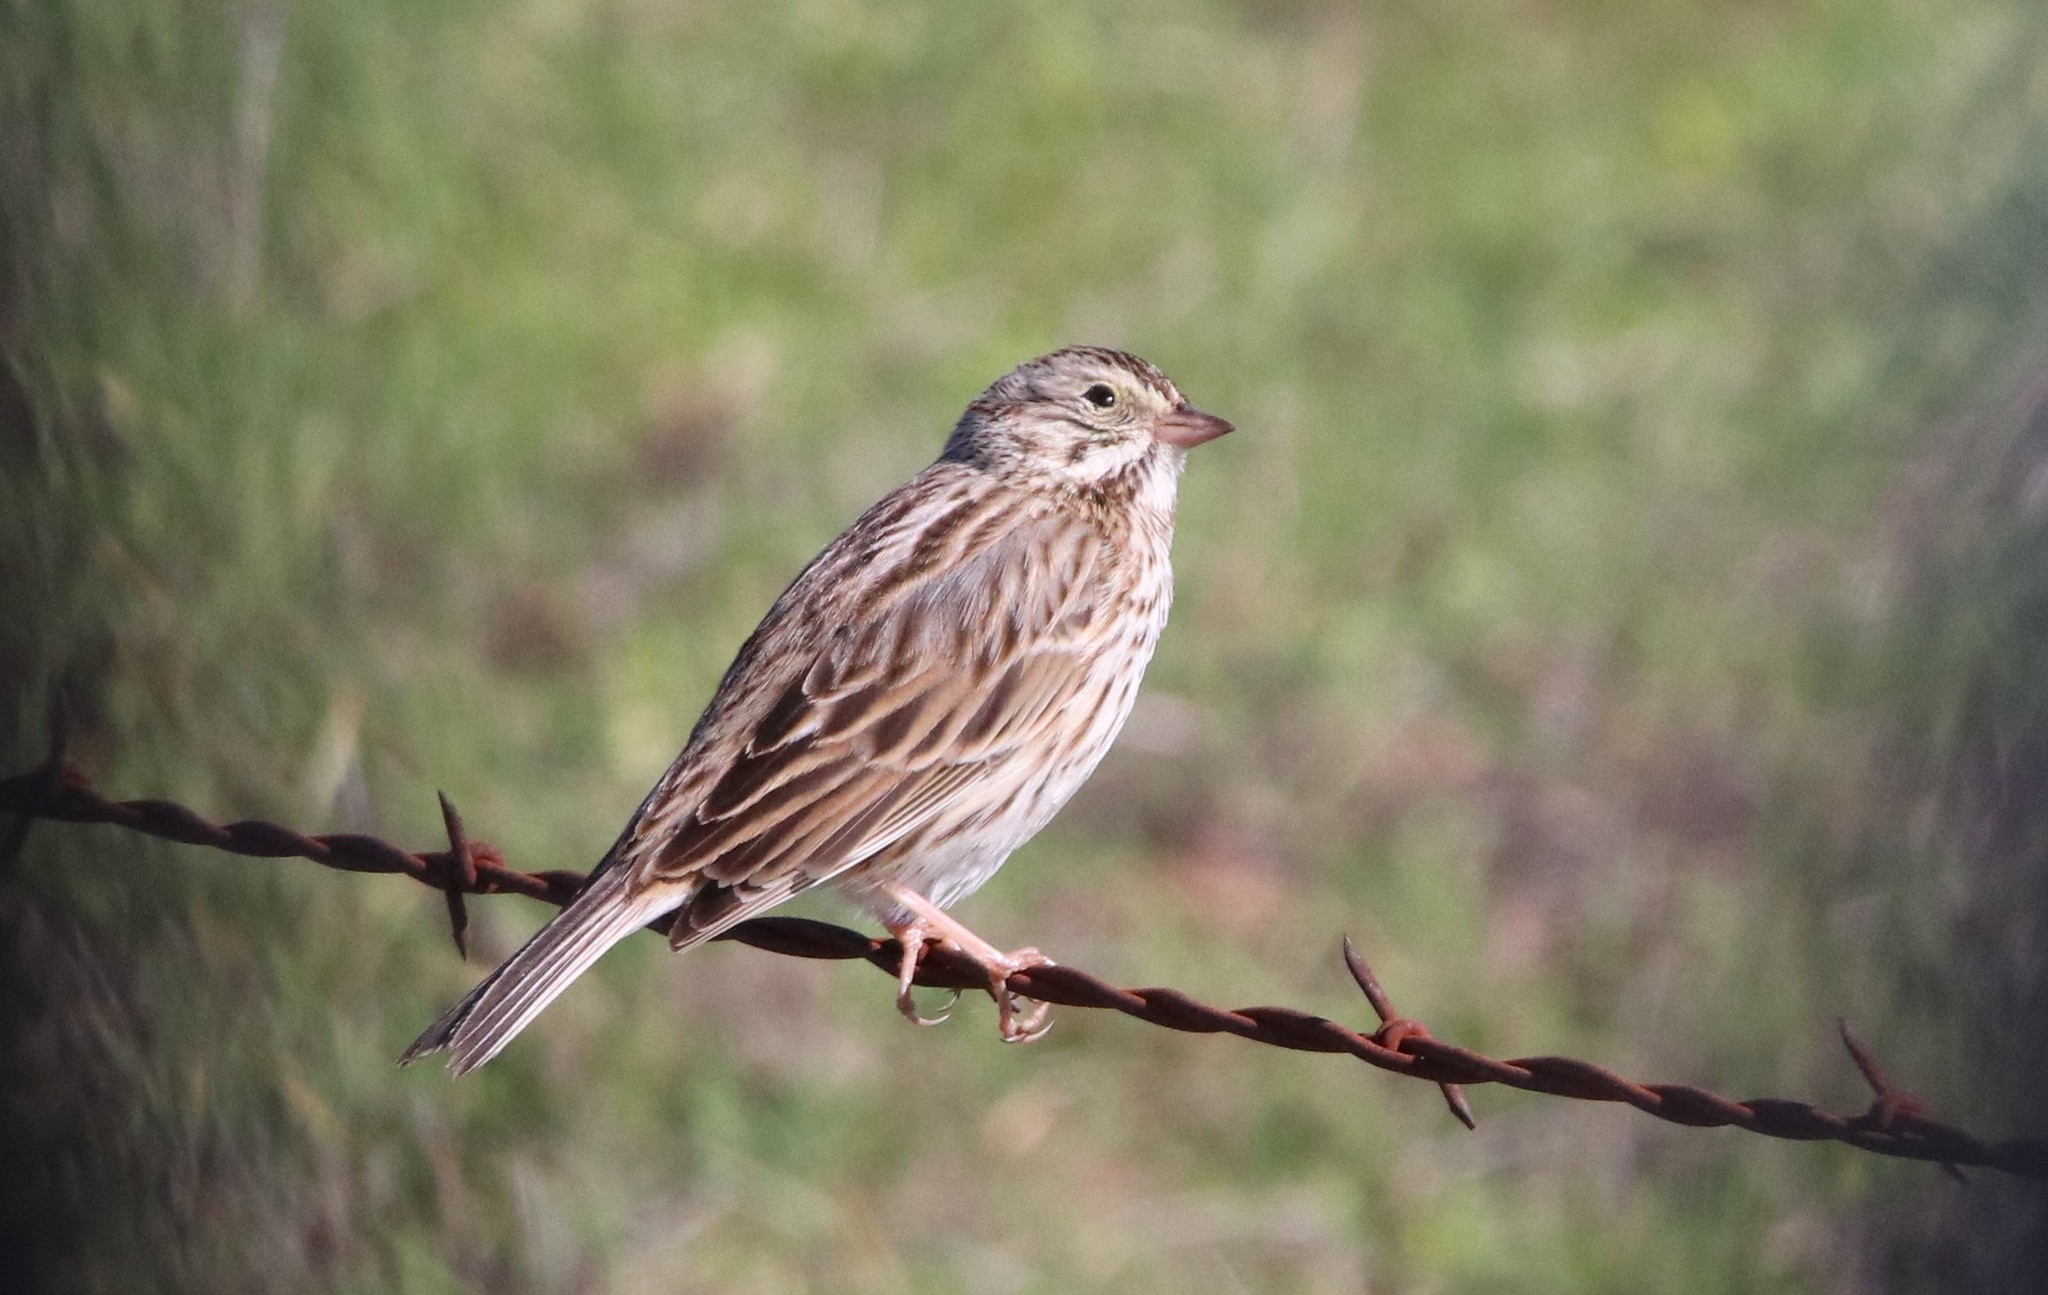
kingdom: Animalia
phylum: Chordata
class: Aves
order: Passeriformes
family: Passerellidae
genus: Passerculus
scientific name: Passerculus sandwichensis
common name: Savannah sparrow
